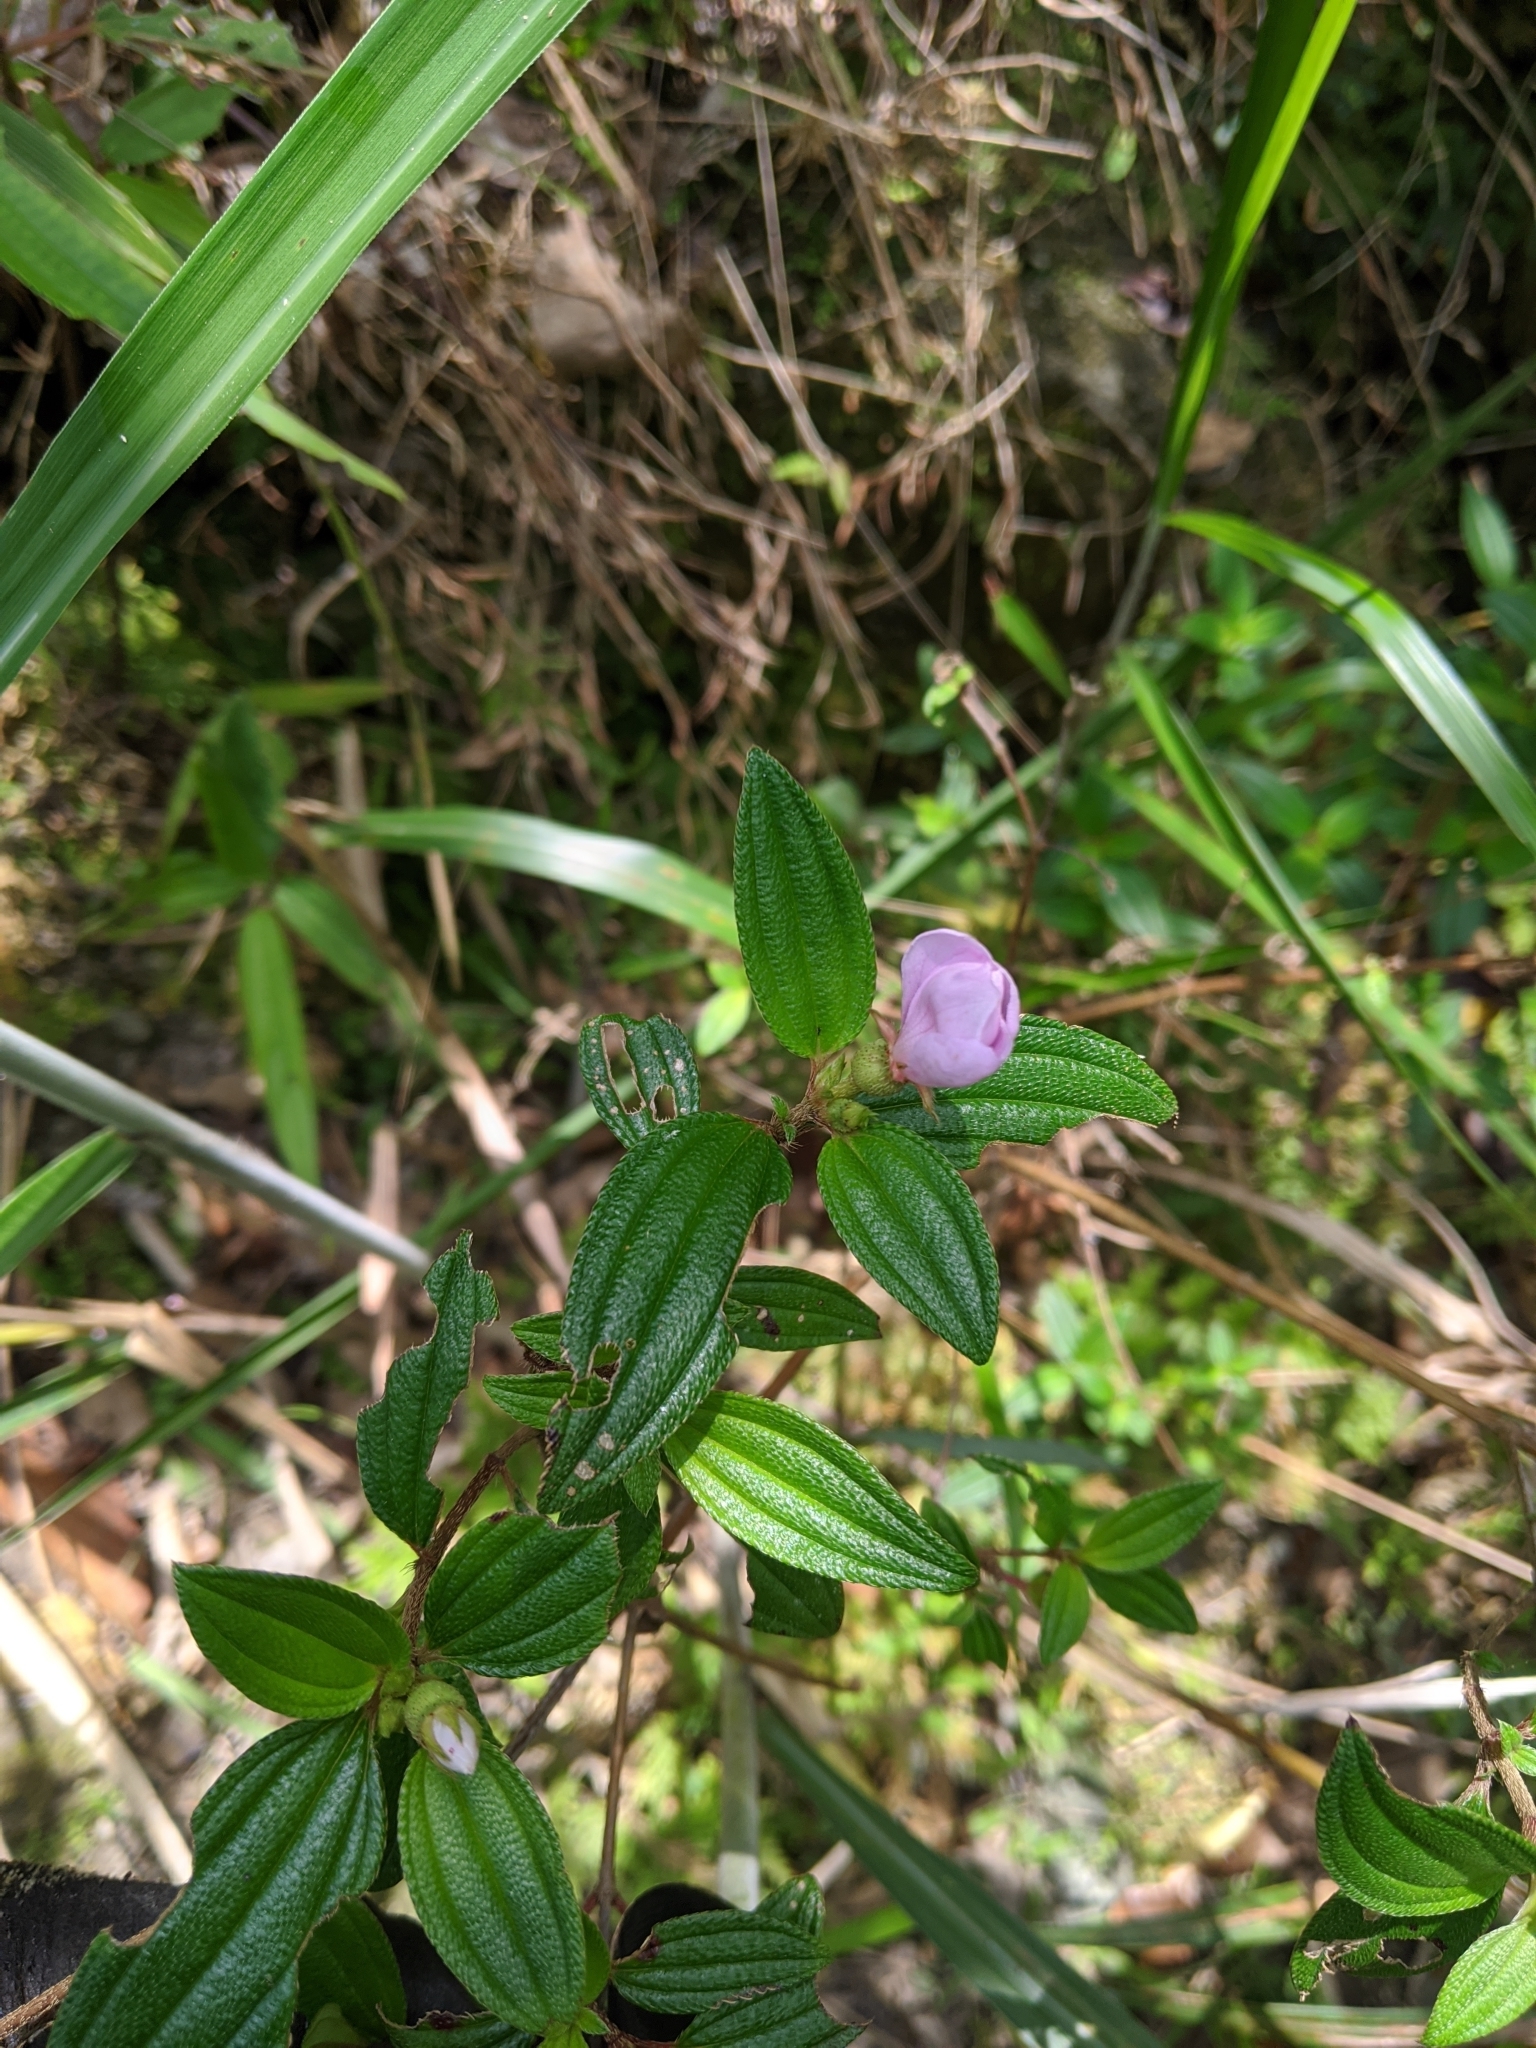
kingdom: Plantae
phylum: Tracheophyta
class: Magnoliopsida
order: Myrtales
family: Melastomataceae
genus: Melastoma
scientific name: Melastoma scaberrima
